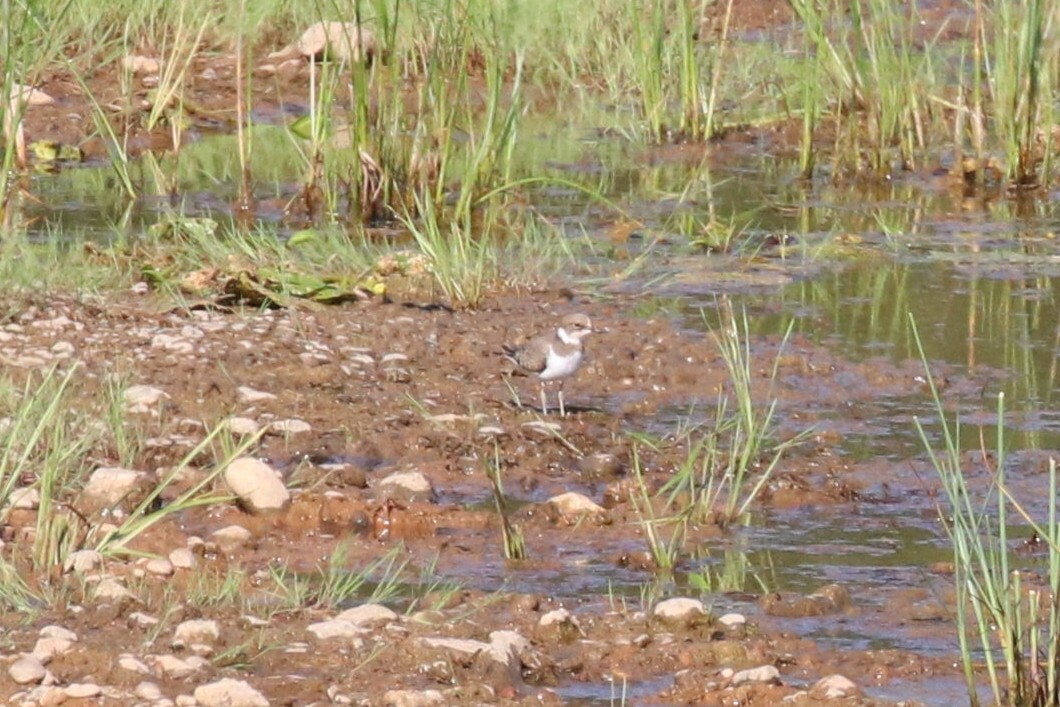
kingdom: Animalia
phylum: Chordata
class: Aves
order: Charadriiformes
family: Charadriidae
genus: Charadrius
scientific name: Charadrius dubius
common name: Little ringed plover
